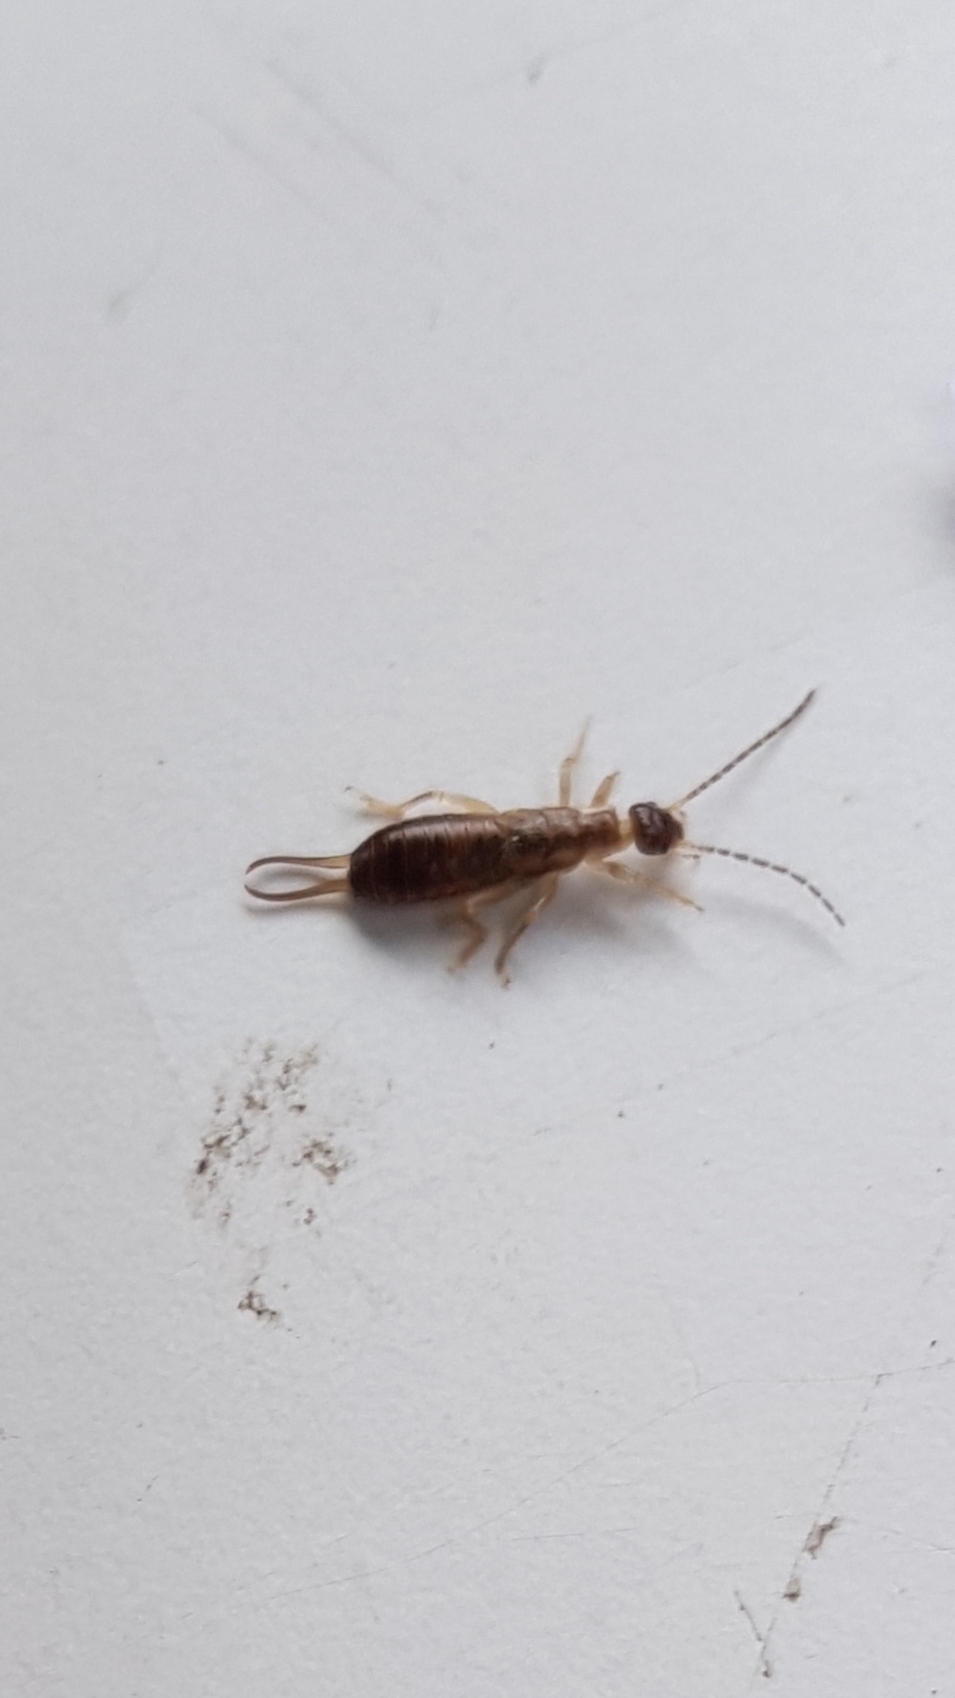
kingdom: Animalia
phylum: Arthropoda
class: Insecta
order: Dermaptera
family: Forficulidae
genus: Forficula
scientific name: Forficula
